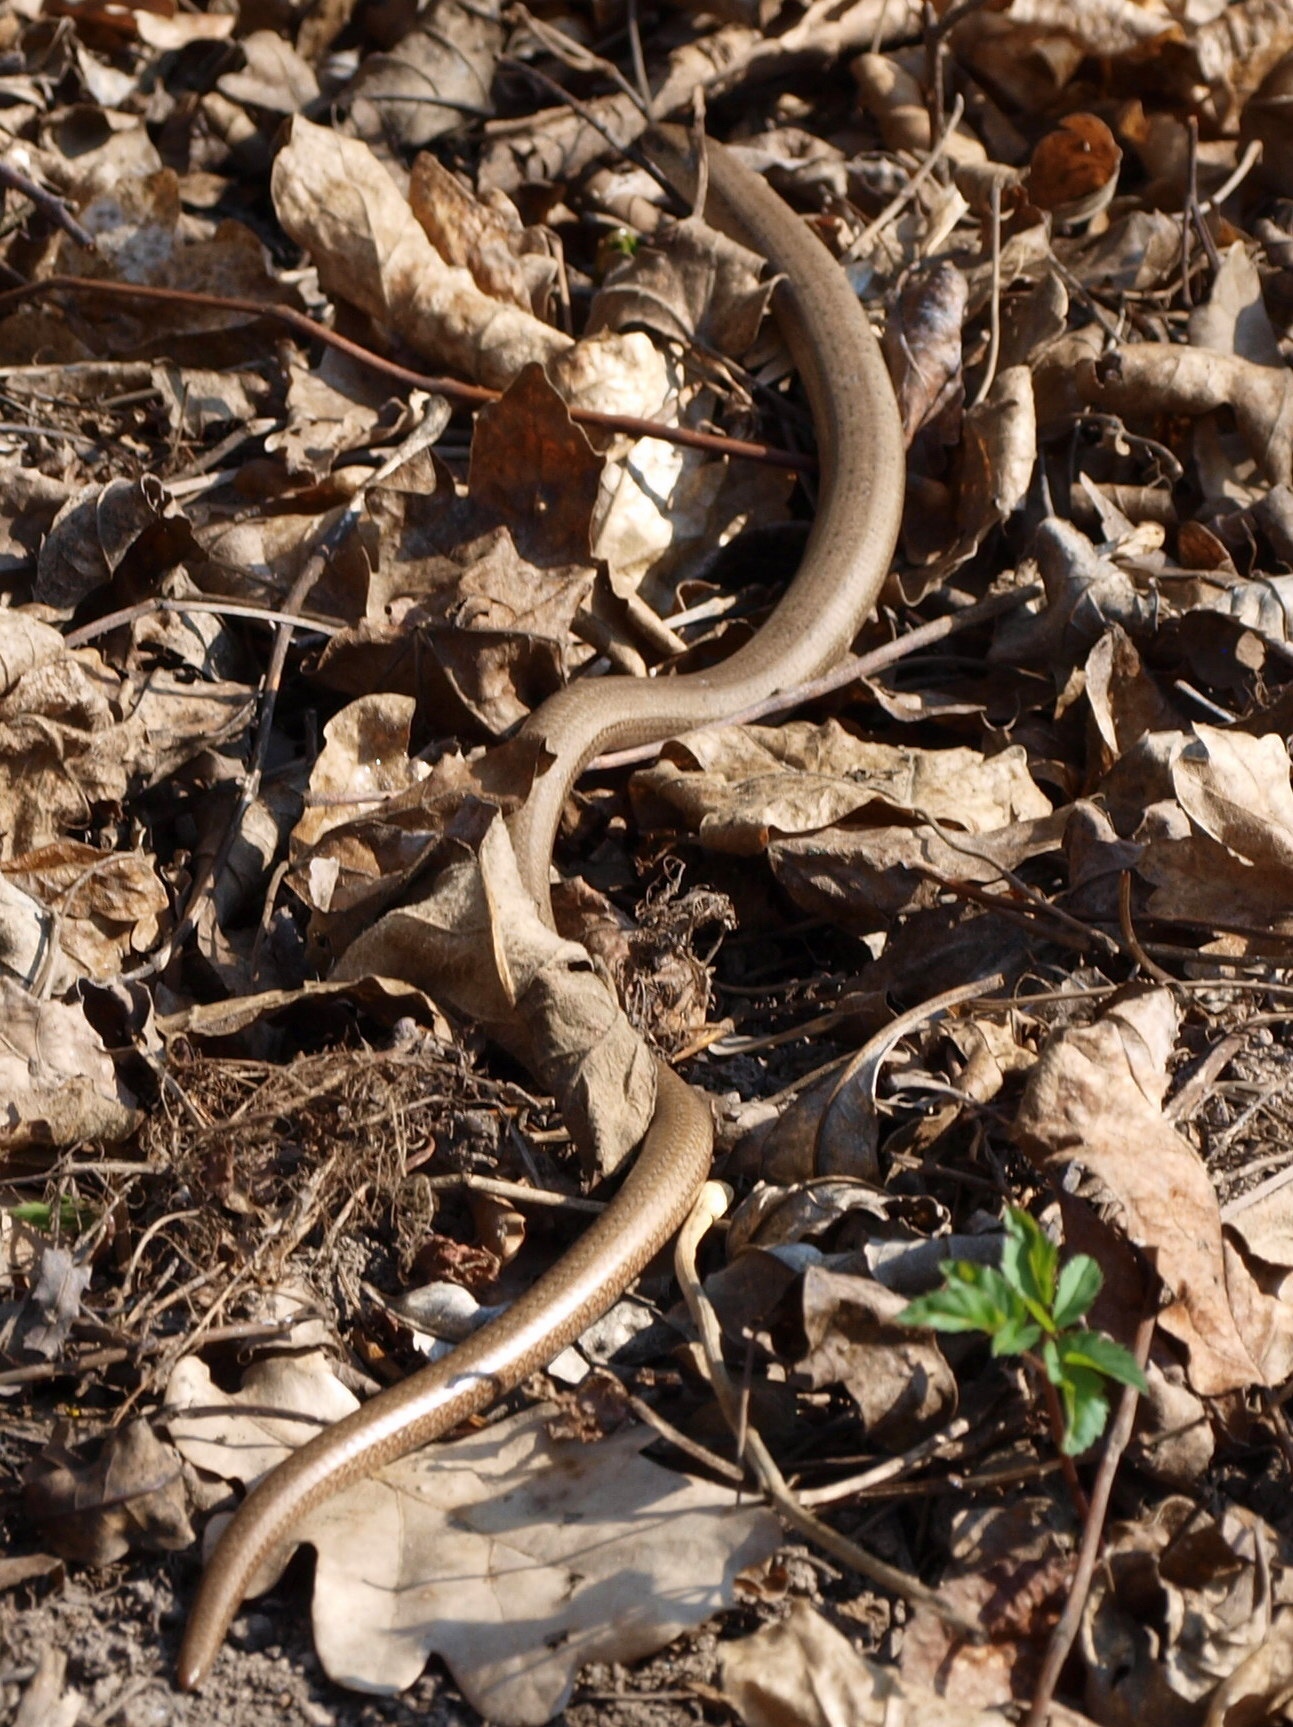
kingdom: Animalia
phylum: Chordata
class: Squamata
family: Anguidae
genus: Anguis
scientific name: Anguis fragilis
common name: Slow worm
